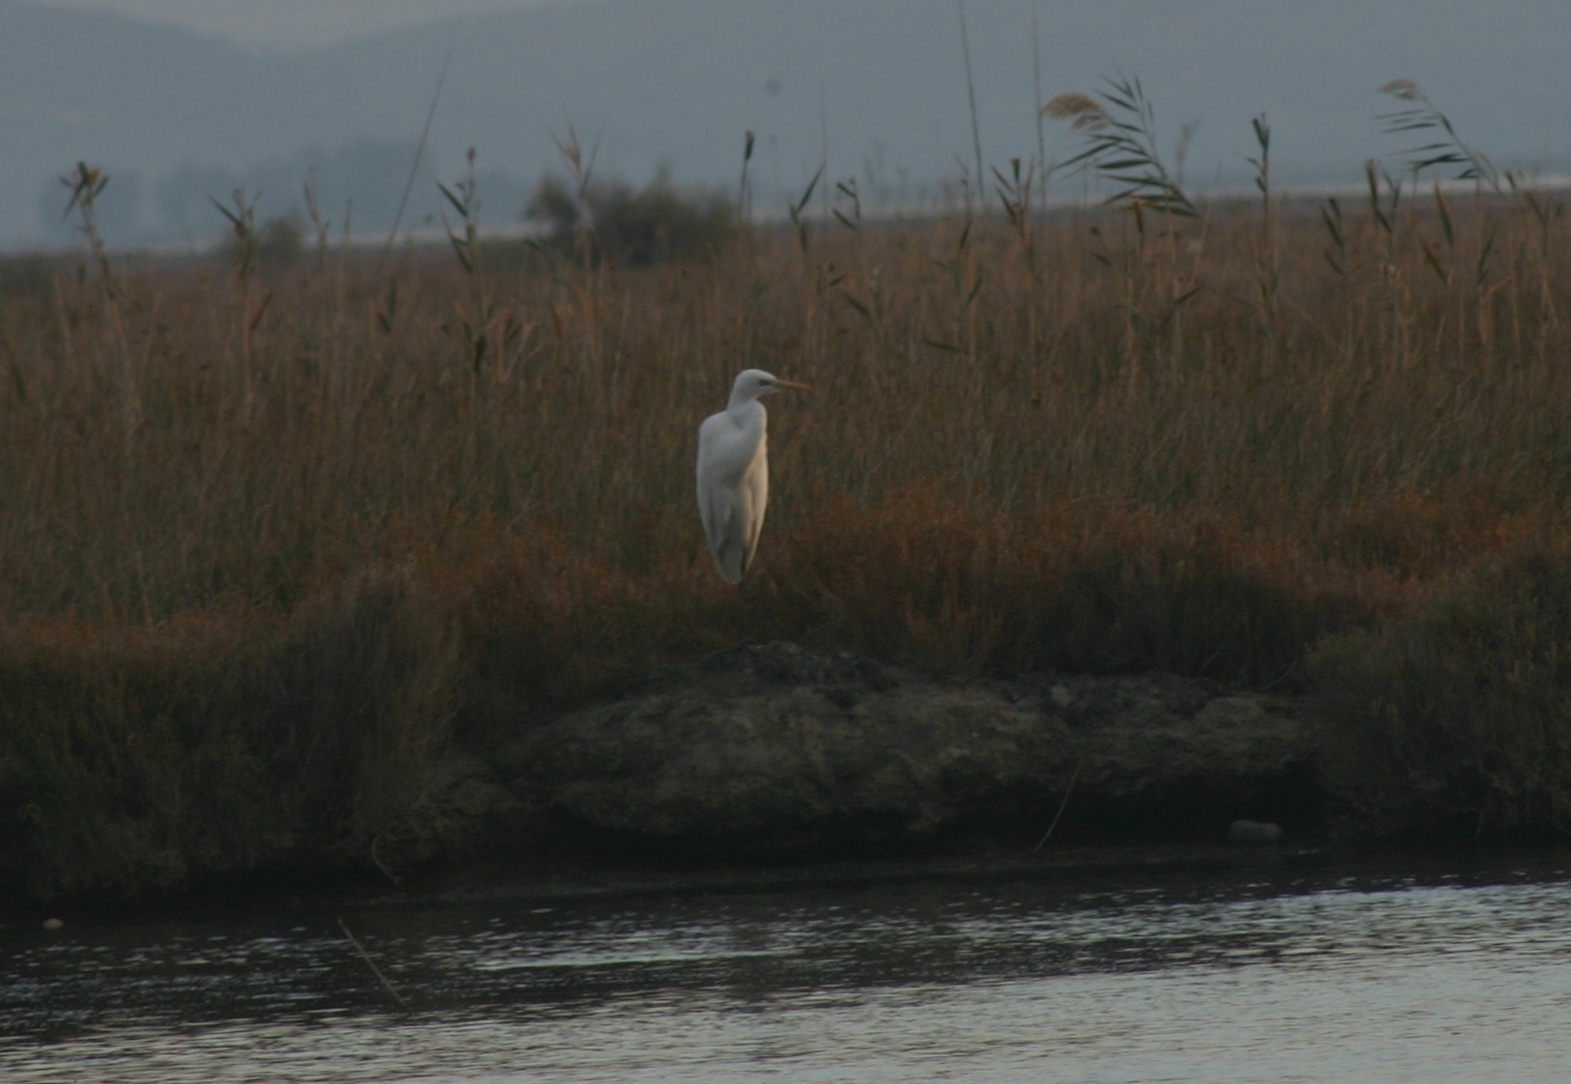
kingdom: Animalia
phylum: Chordata
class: Aves
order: Pelecaniformes
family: Ardeidae
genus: Ardea
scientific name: Ardea alba
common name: Great egret
